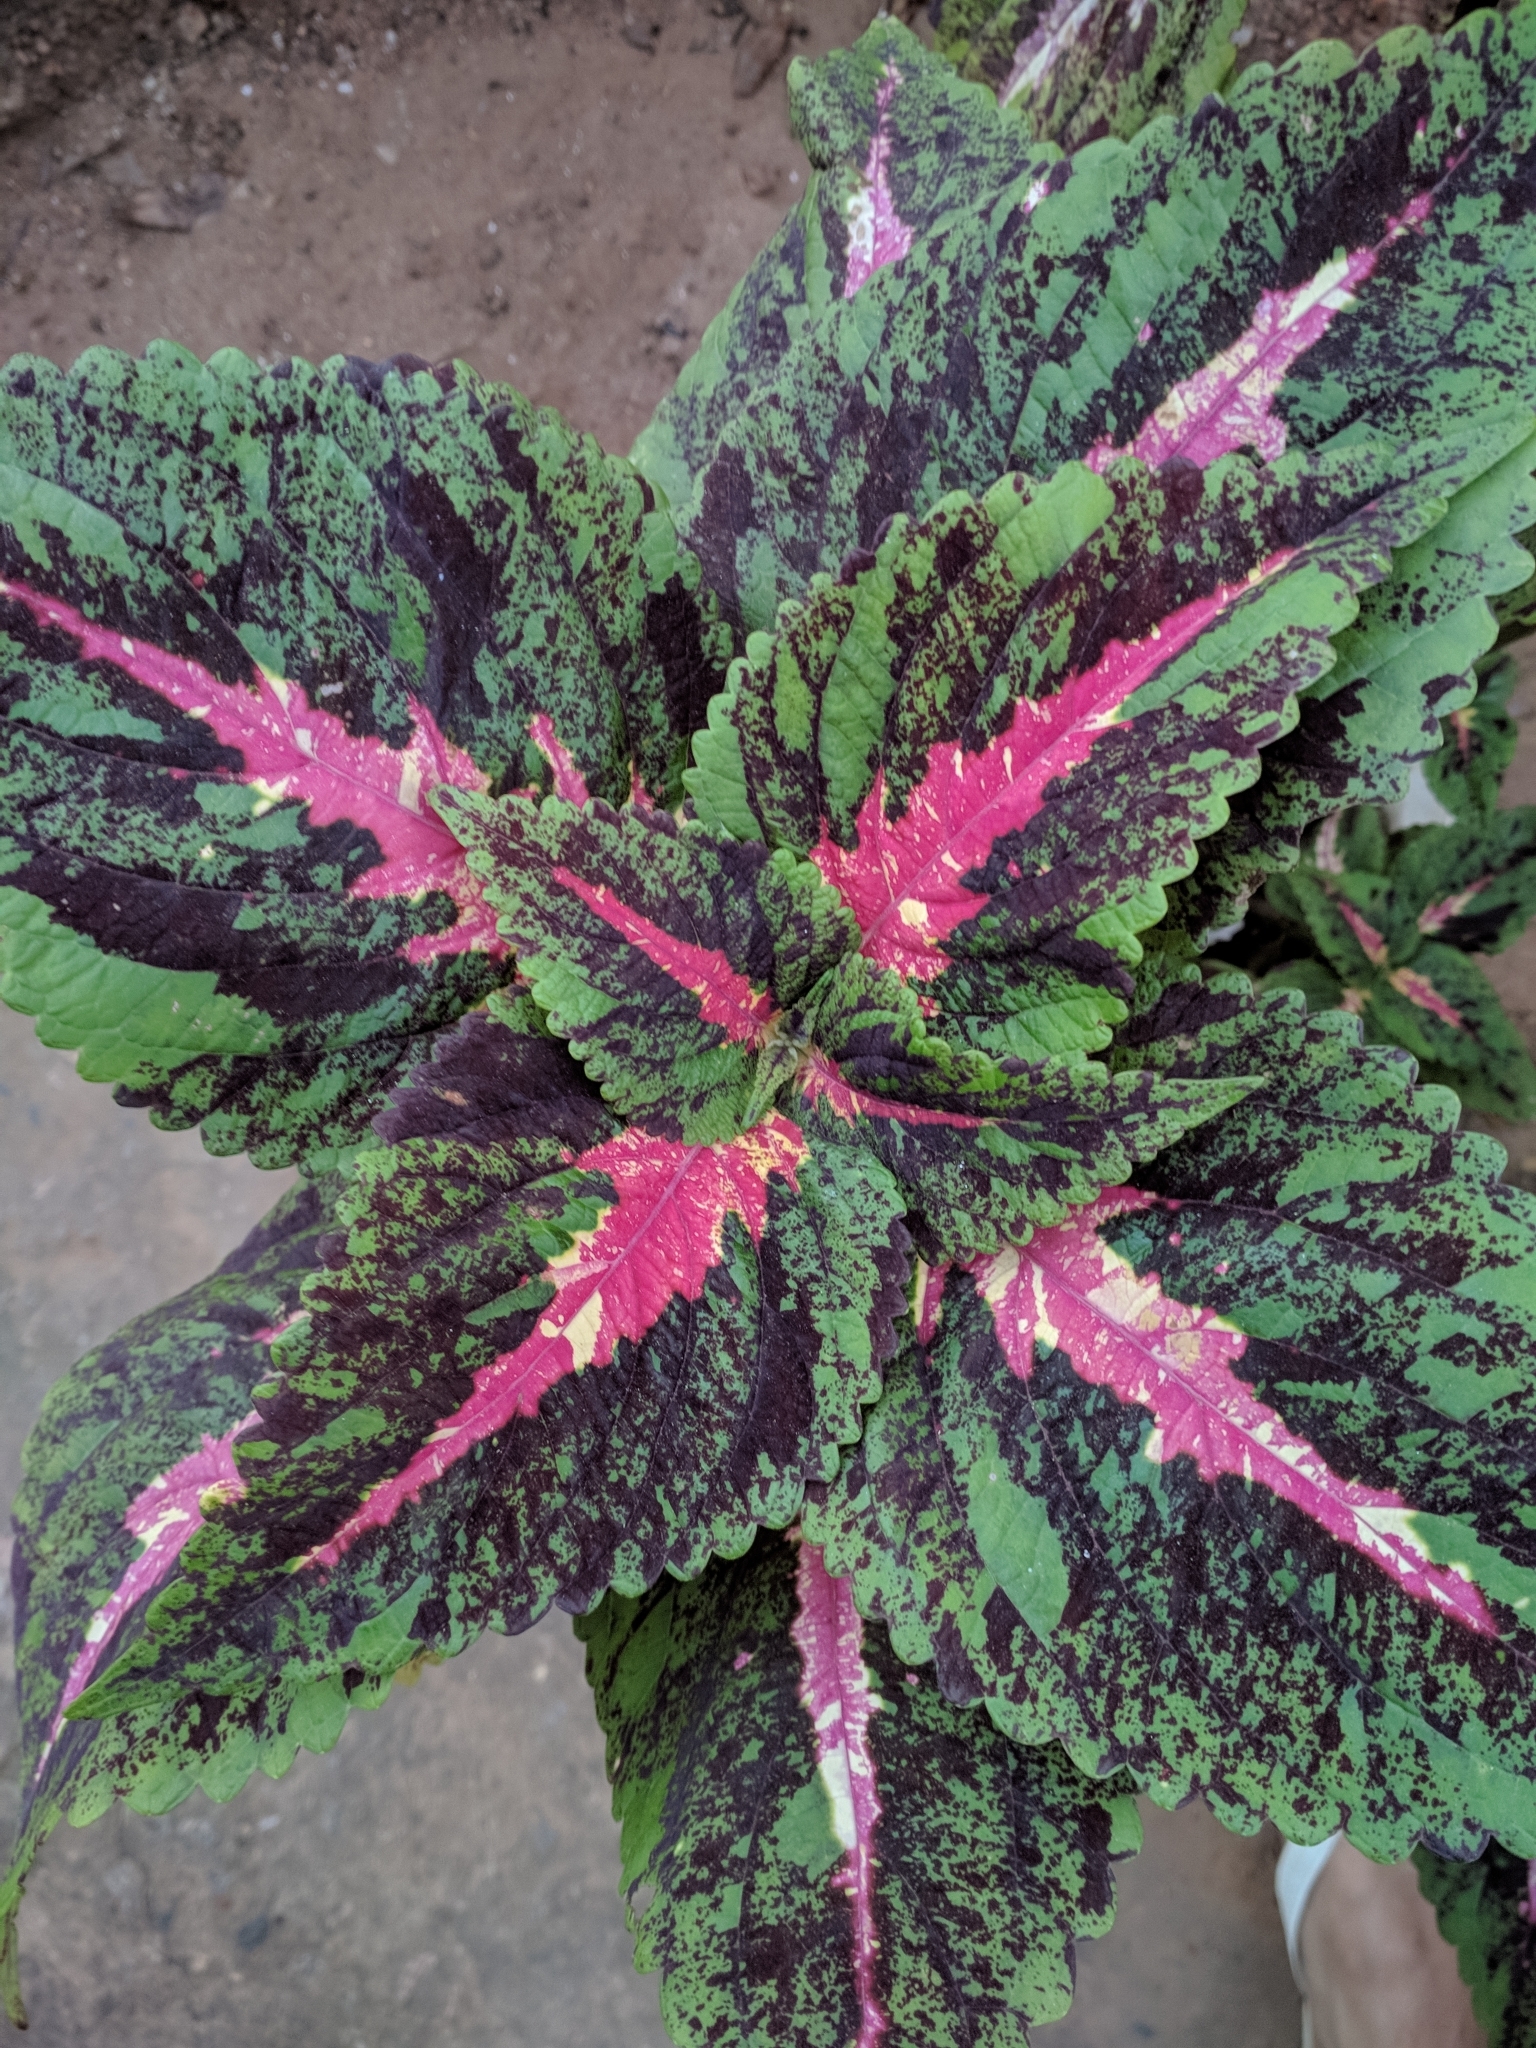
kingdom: Plantae
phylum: Tracheophyta
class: Magnoliopsida
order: Lamiales
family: Lamiaceae
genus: Coleus
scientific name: Coleus scutellarioides
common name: Coleus
